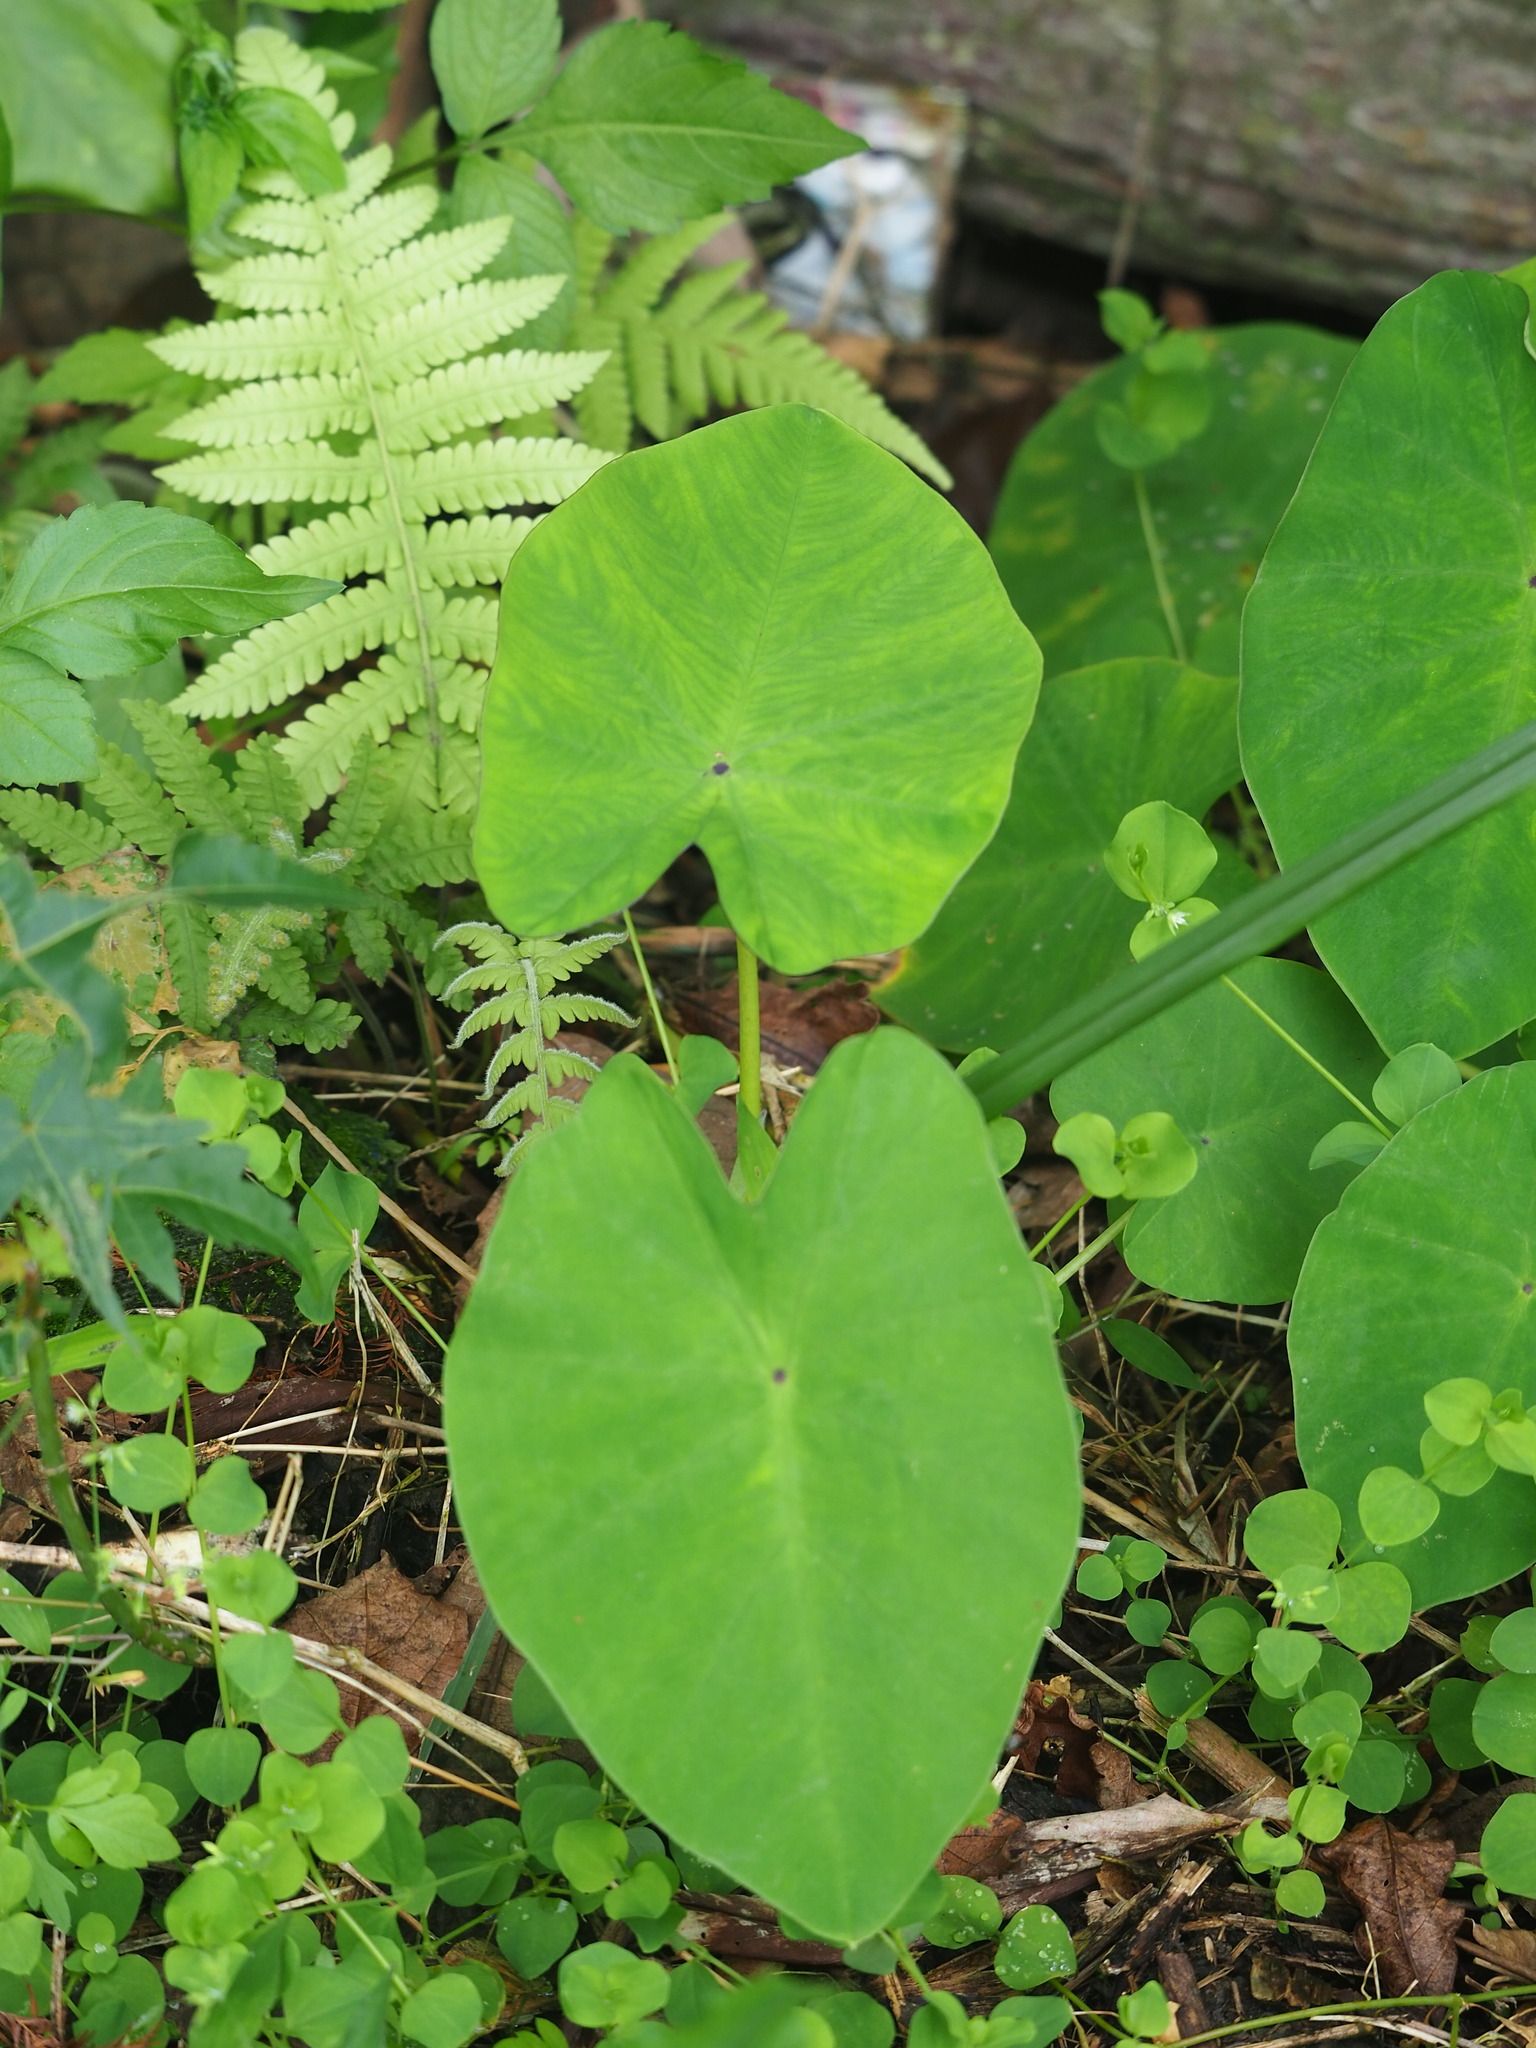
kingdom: Plantae
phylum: Tracheophyta
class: Liliopsida
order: Alismatales
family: Araceae
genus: Colocasia
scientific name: Colocasia esculenta
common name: Taro
